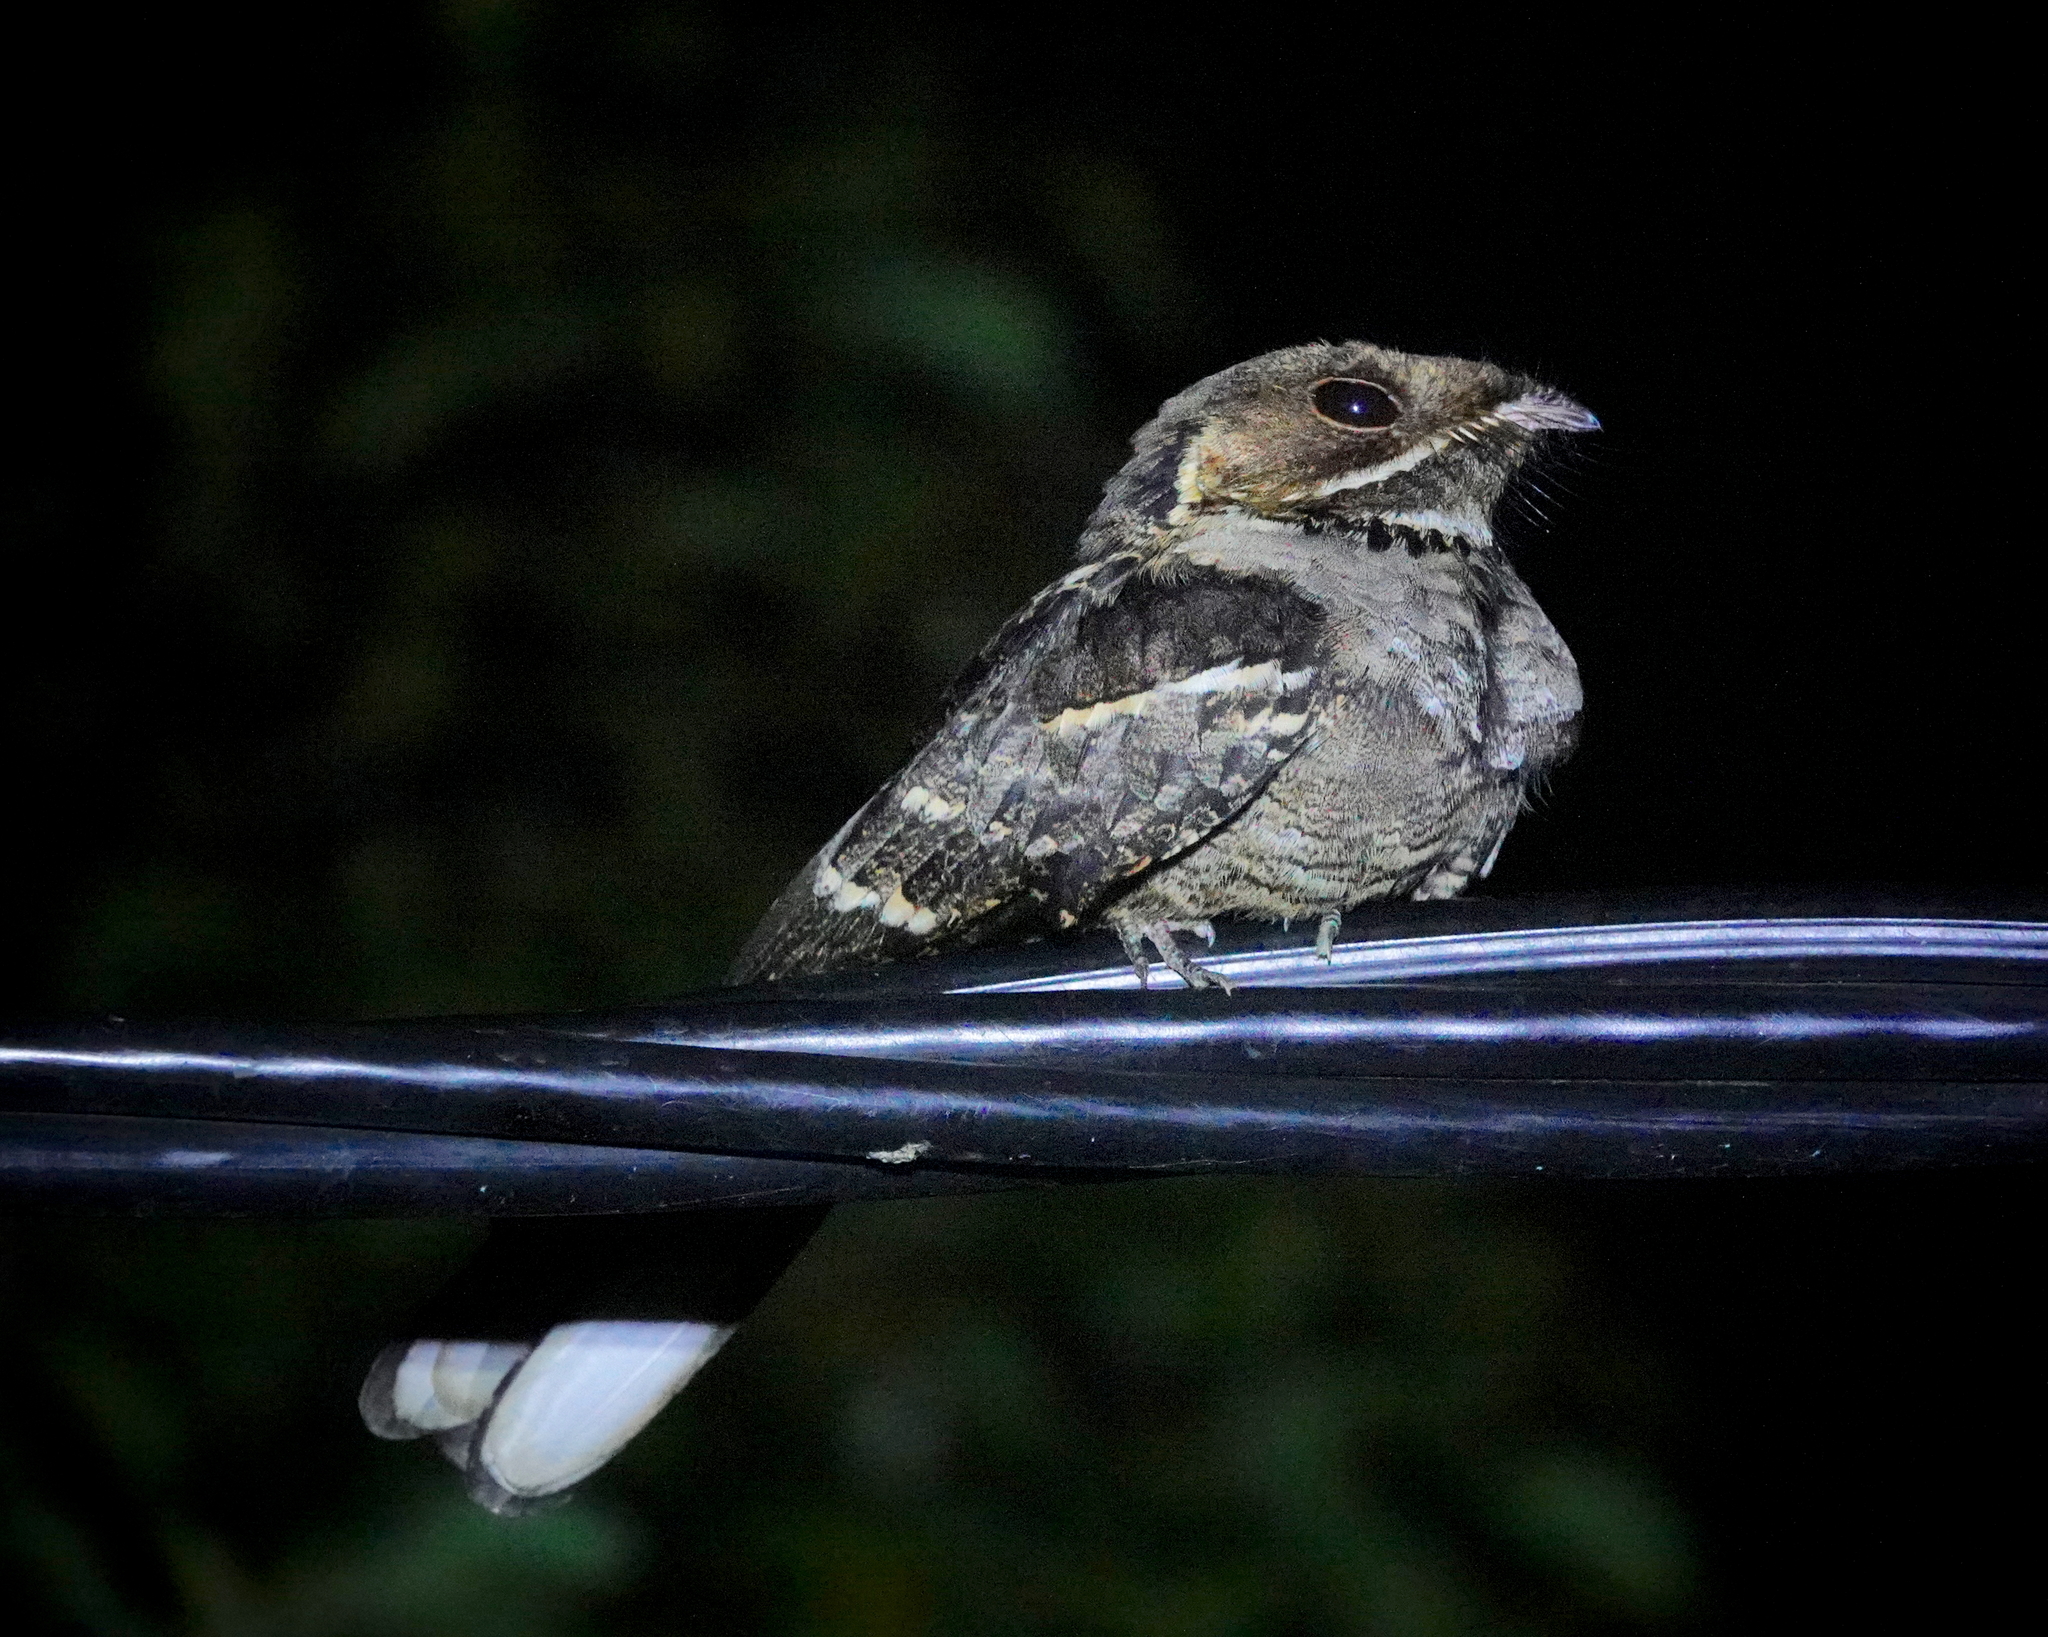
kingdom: Animalia
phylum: Chordata
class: Aves
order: Caprimulgiformes
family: Caprimulgidae
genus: Caprimulgus
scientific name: Caprimulgus atripennis
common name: Jerdon's nightjar
